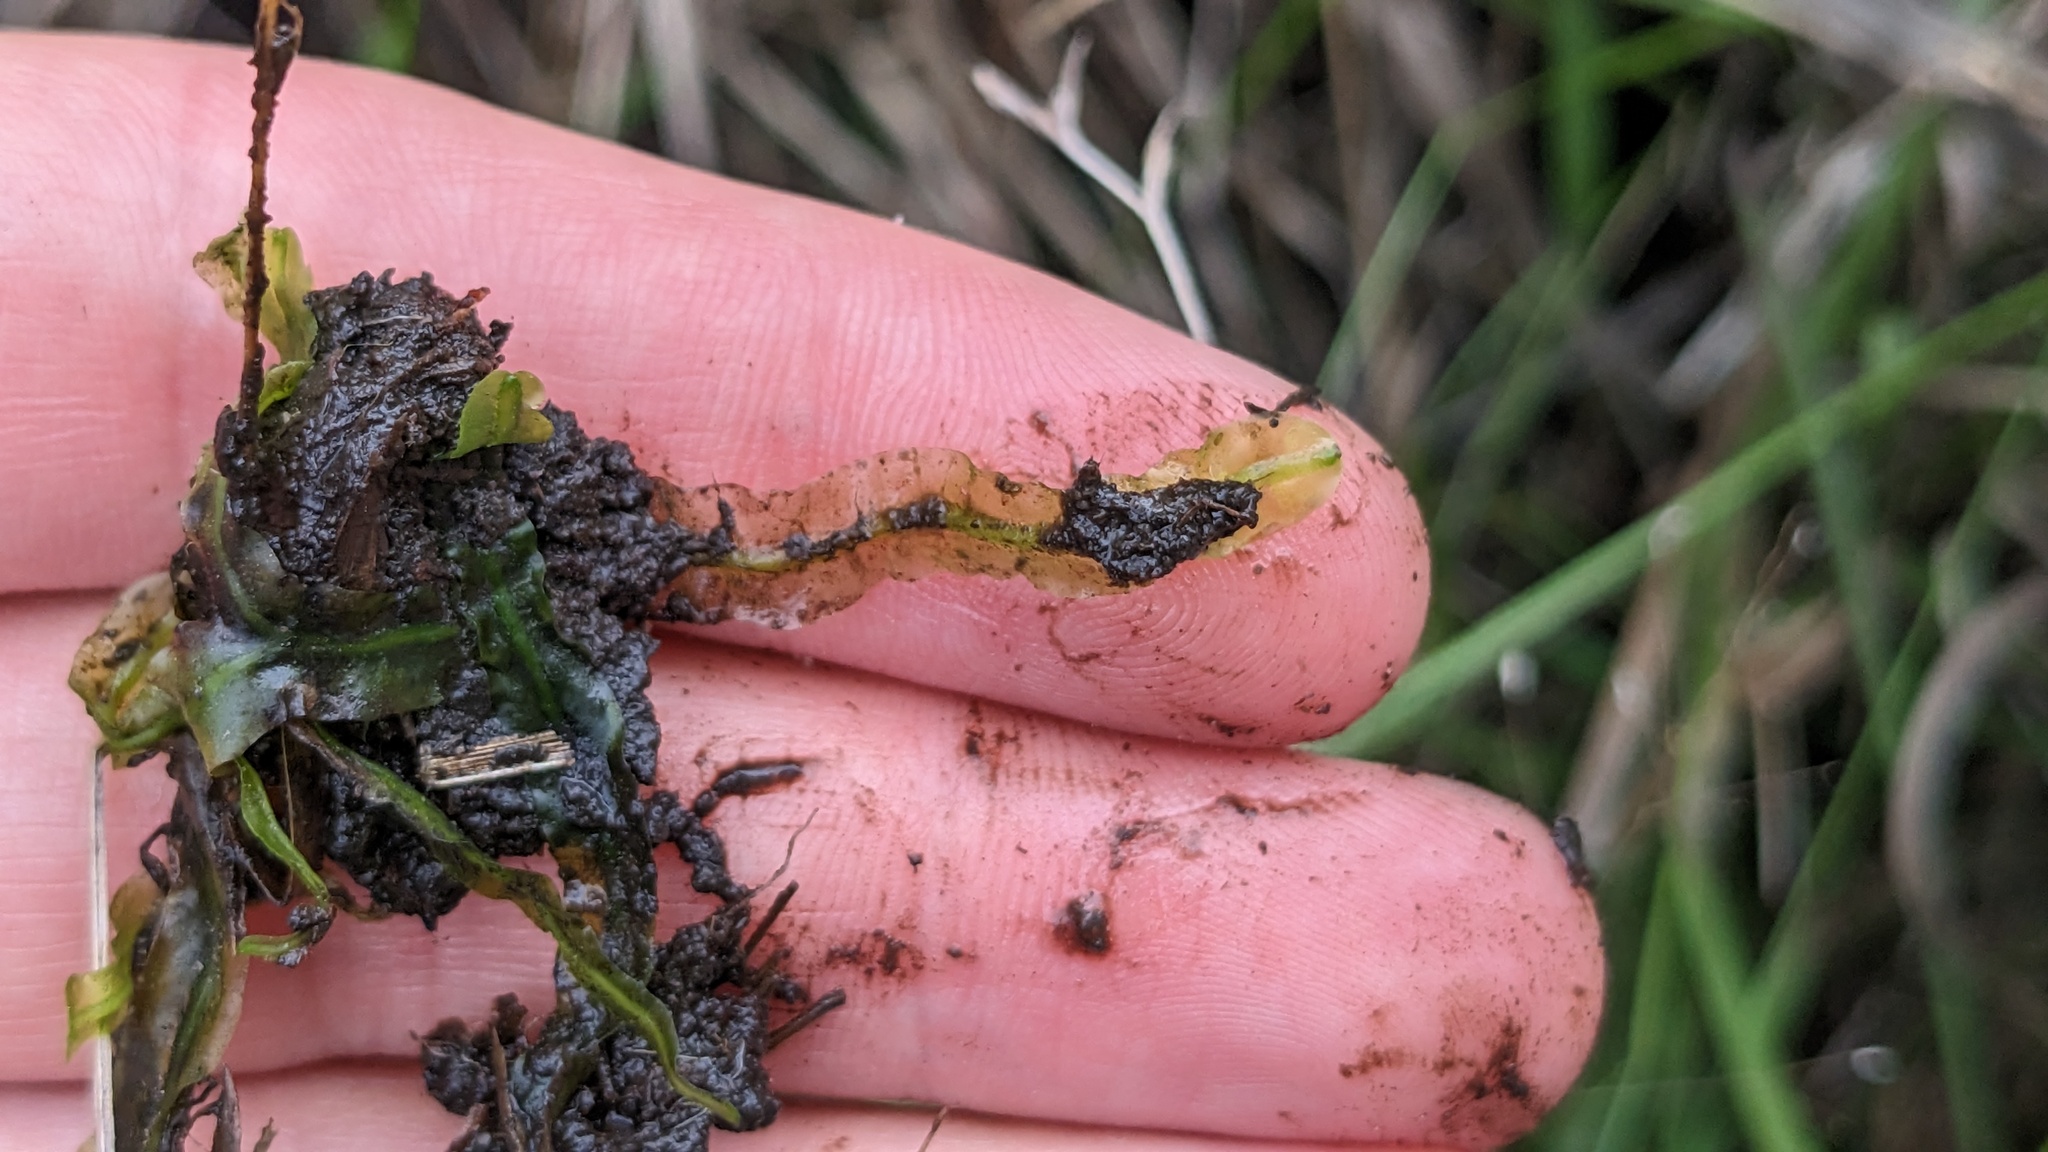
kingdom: Plantae
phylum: Marchantiophyta
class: Jungermanniopsida
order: Pallaviciniales
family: Pallaviciniaceae
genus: Pallavicinia
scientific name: Pallavicinia lyellii
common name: Veilwort
